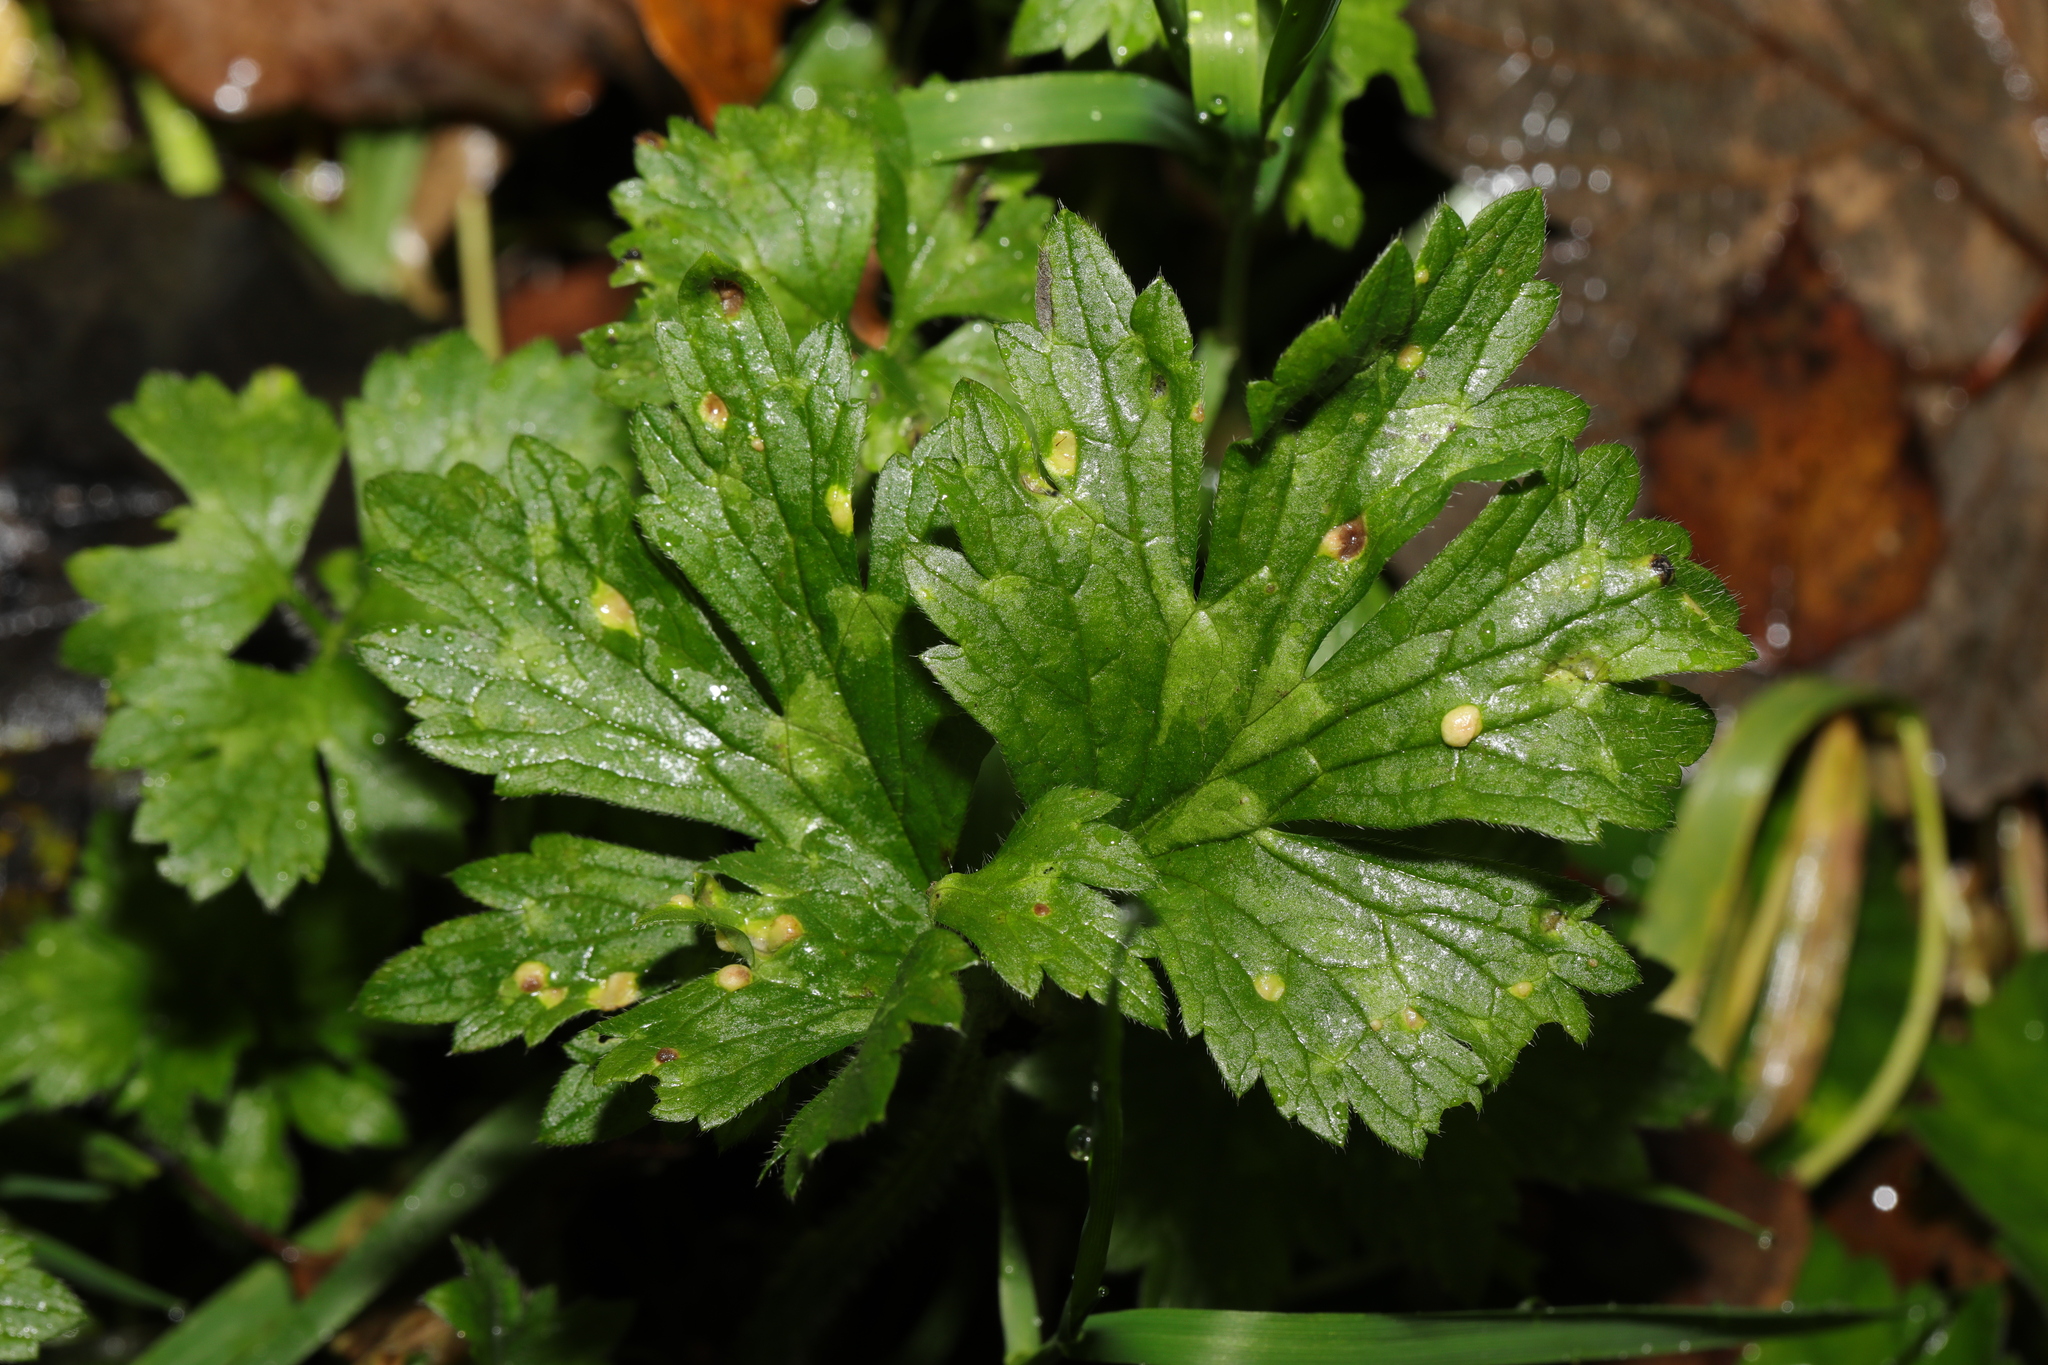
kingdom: Plantae
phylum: Tracheophyta
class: Magnoliopsida
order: Ranunculales
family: Ranunculaceae
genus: Ranunculus
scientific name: Ranunculus repens
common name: Creeping buttercup
